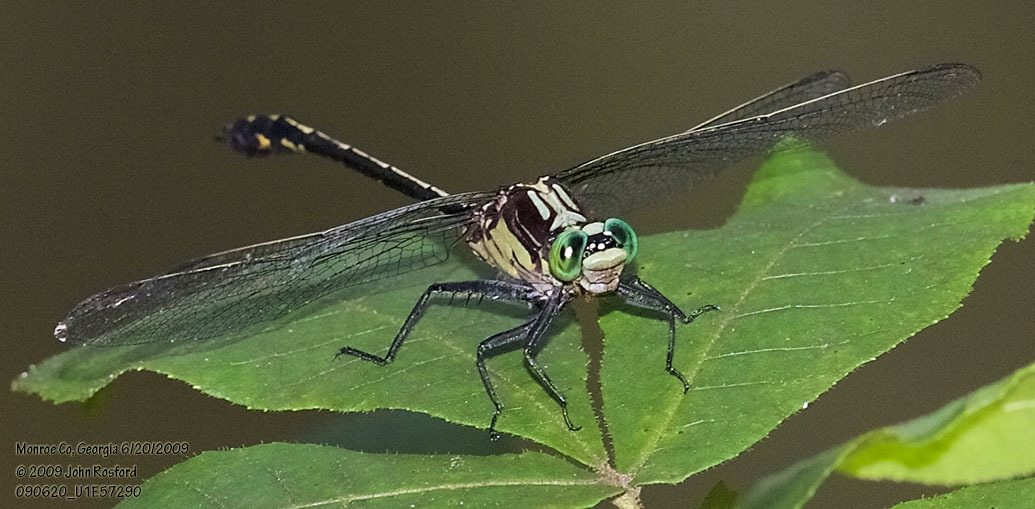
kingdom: Animalia
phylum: Arthropoda
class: Insecta
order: Odonata
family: Gomphidae
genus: Dromogomphus
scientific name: Dromogomphus spinosus
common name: Black-shouldered spinyleg
